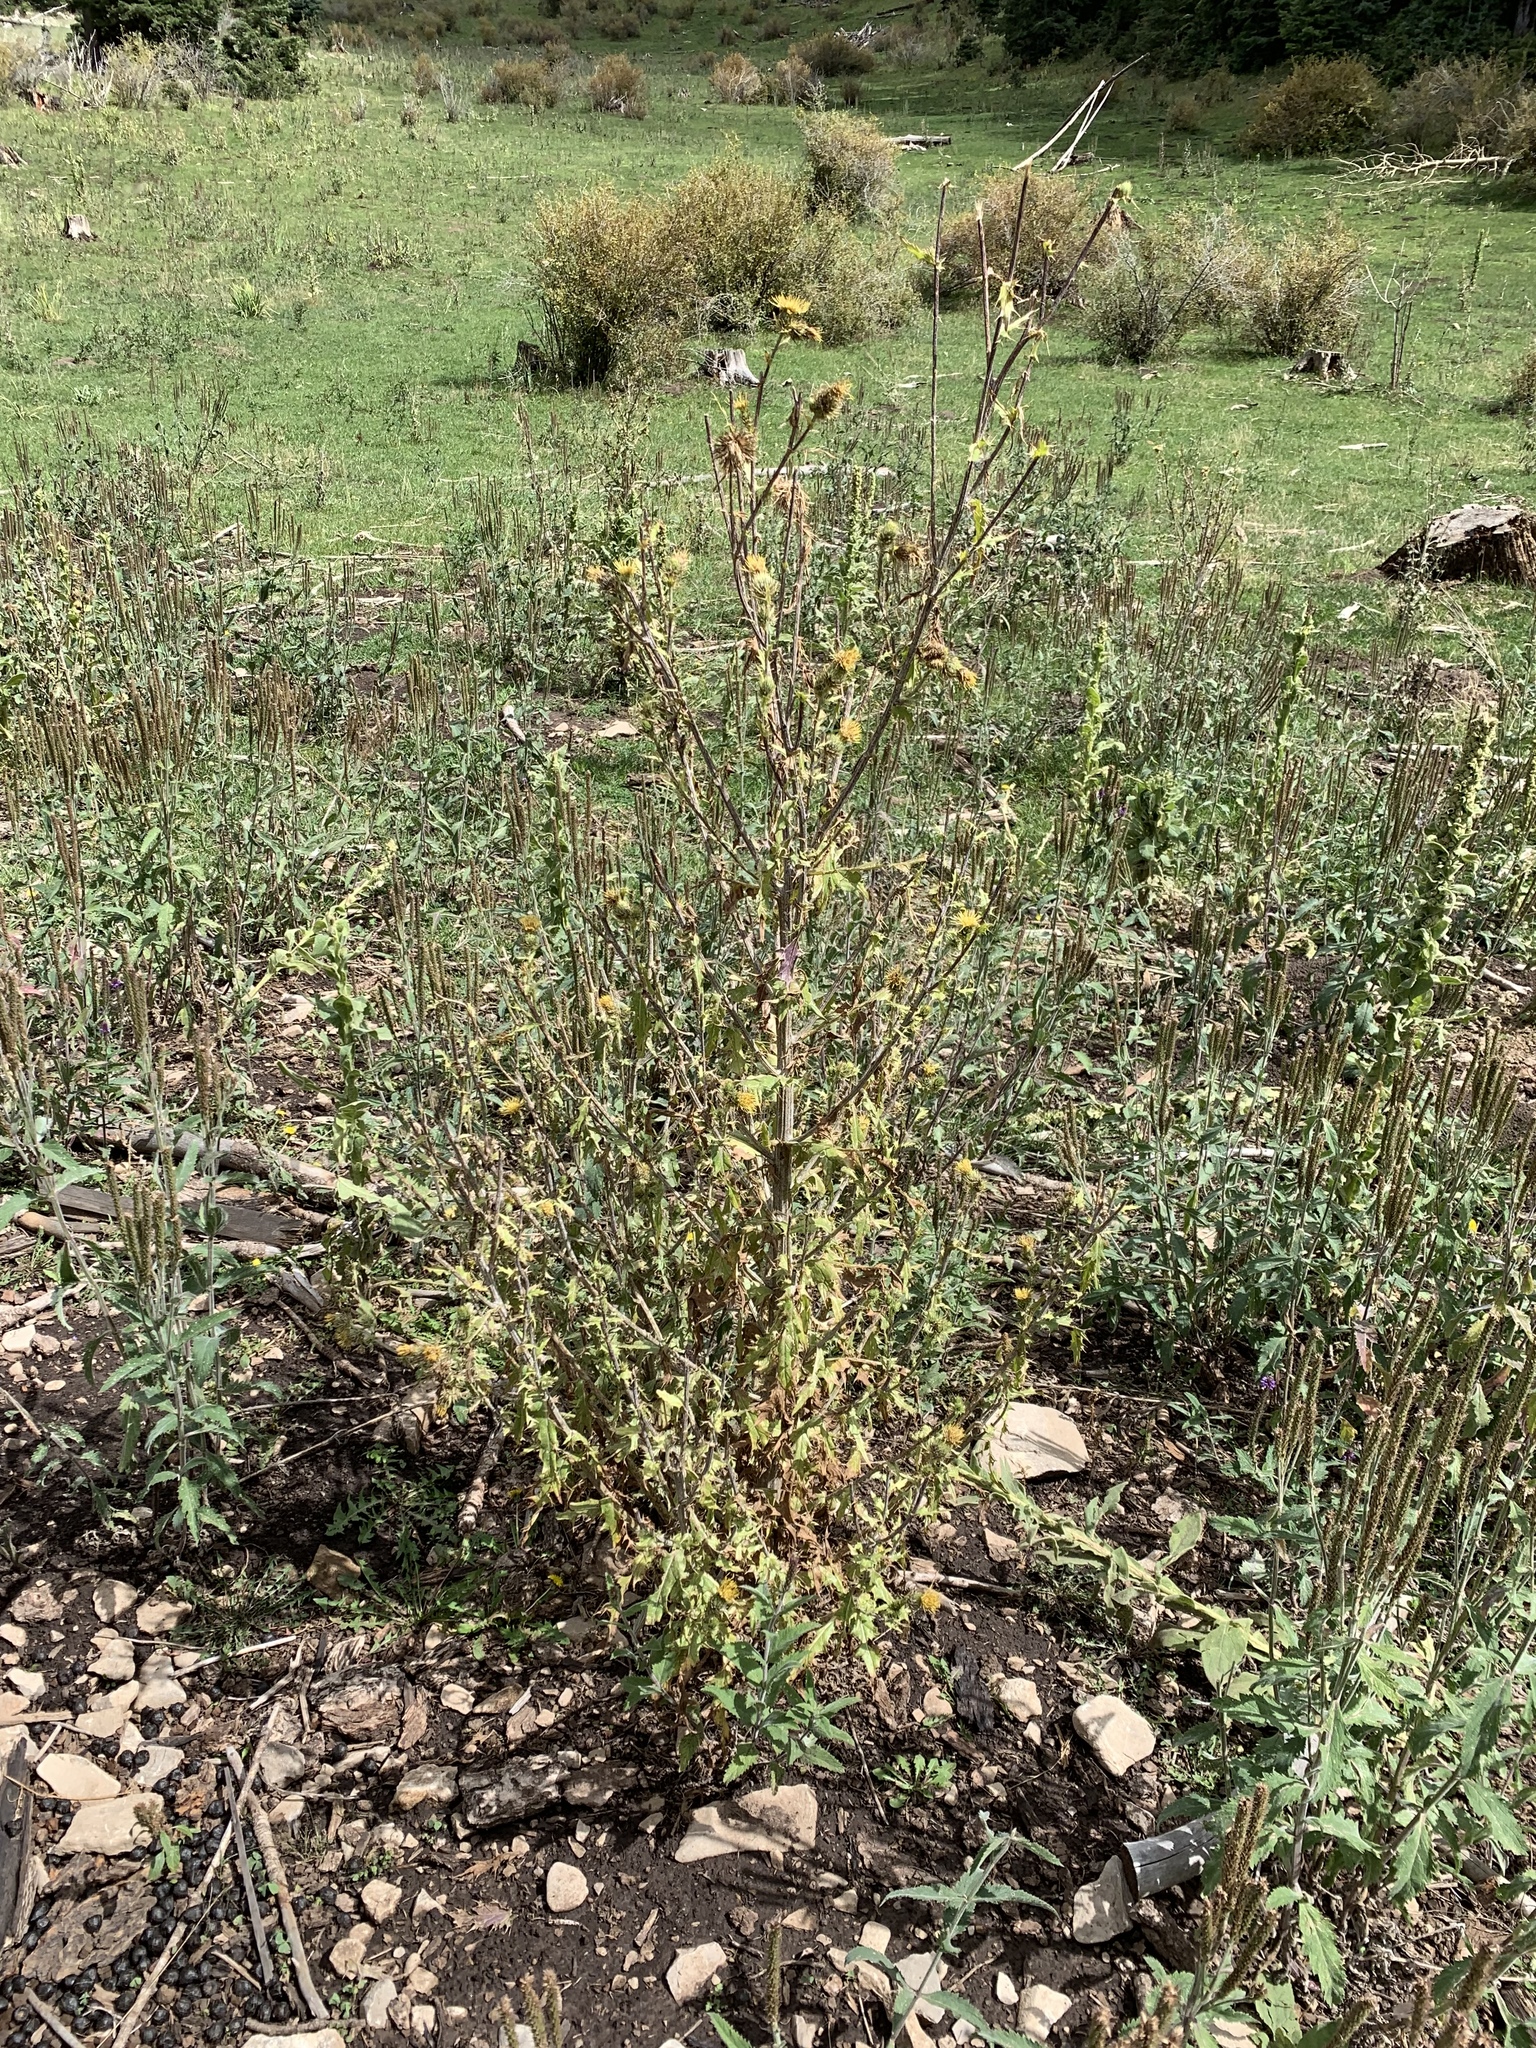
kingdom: Plantae
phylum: Tracheophyta
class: Magnoliopsida
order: Asterales
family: Asteraceae
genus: Cirsium
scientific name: Cirsium parryi
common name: Parry's thistle
